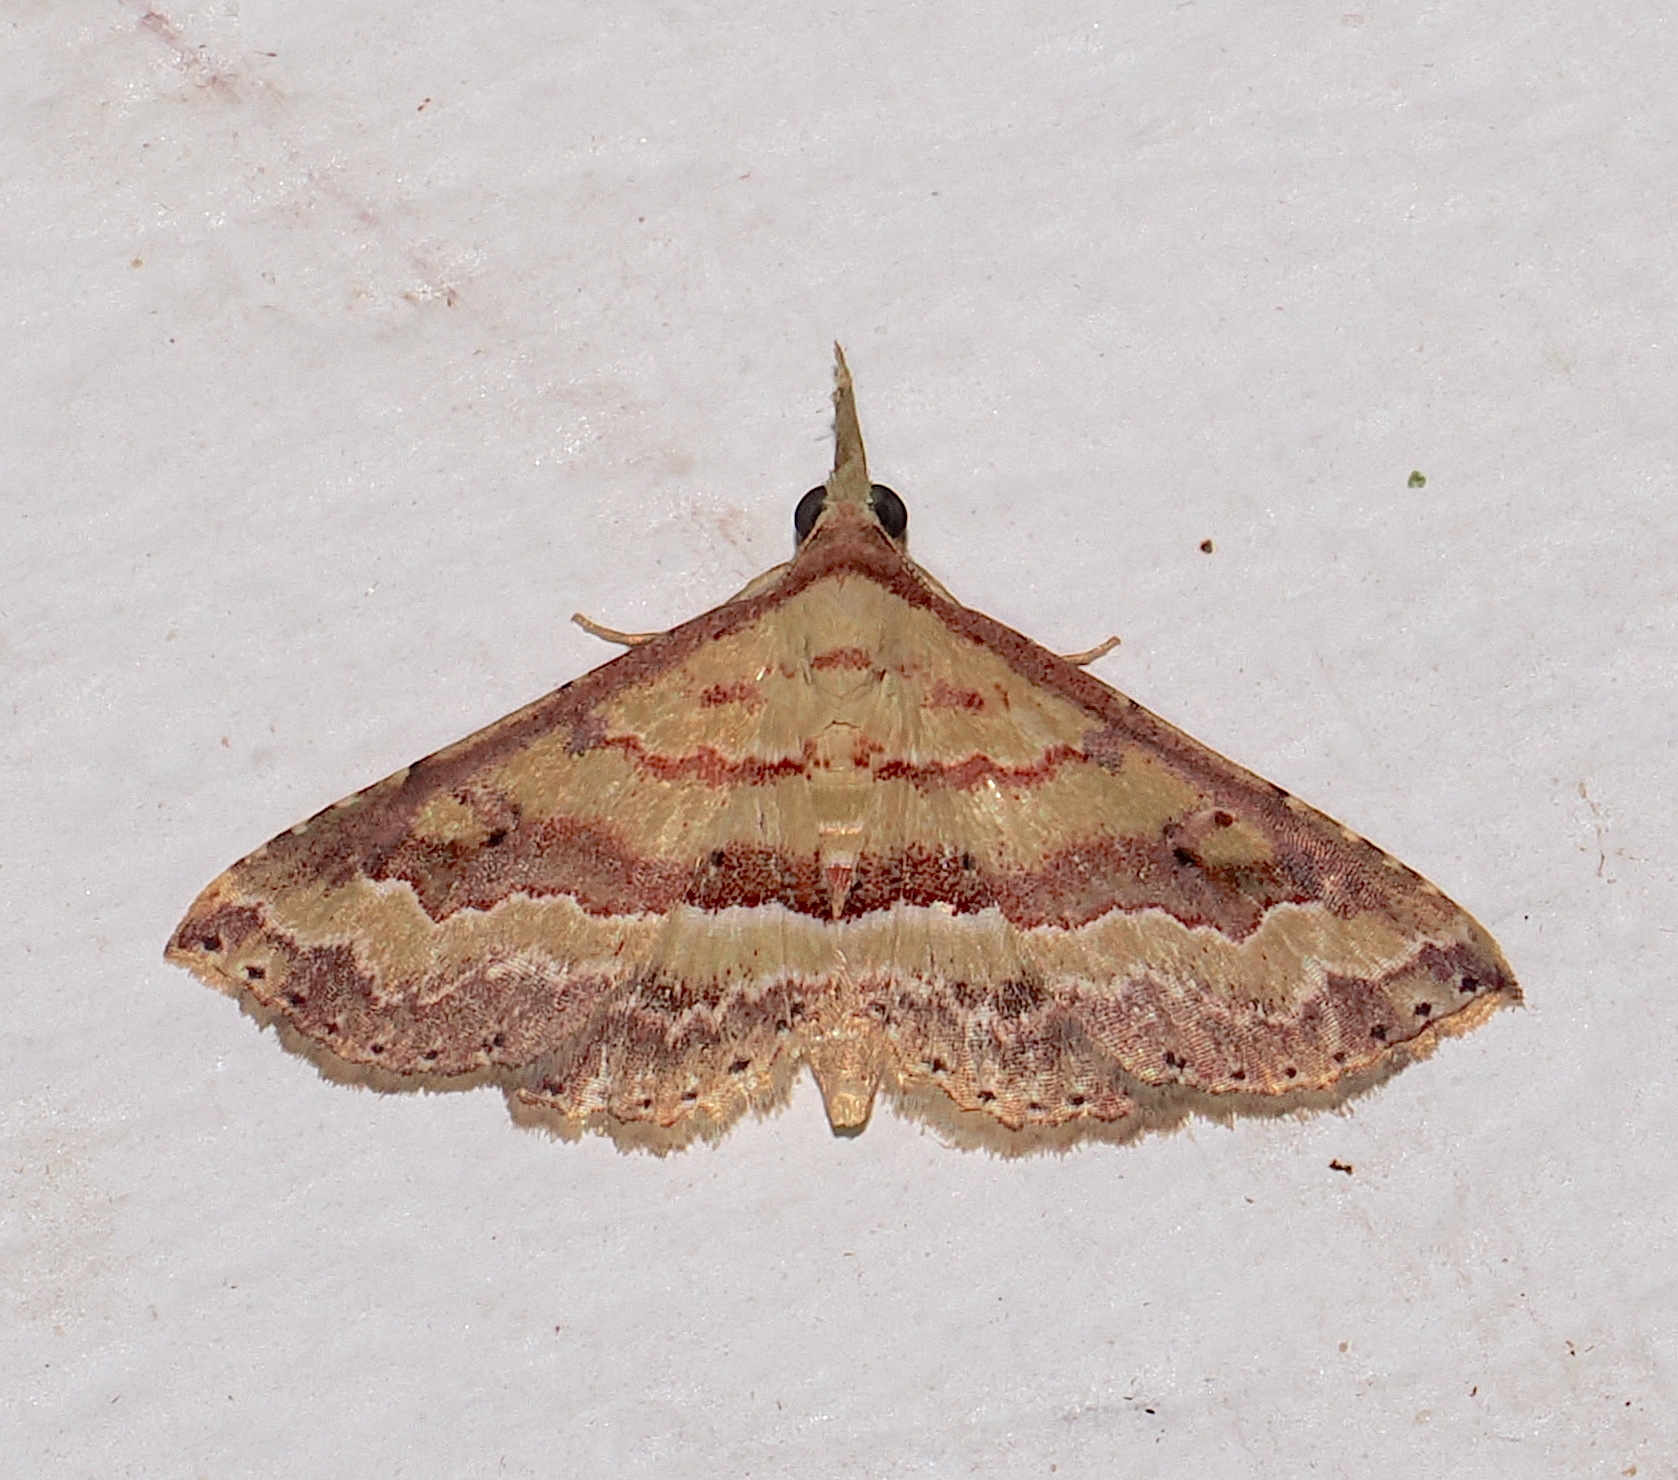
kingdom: Animalia
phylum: Arthropoda
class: Insecta
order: Lepidoptera
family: Erebidae
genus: Mursa
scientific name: Mursa phtisialis
